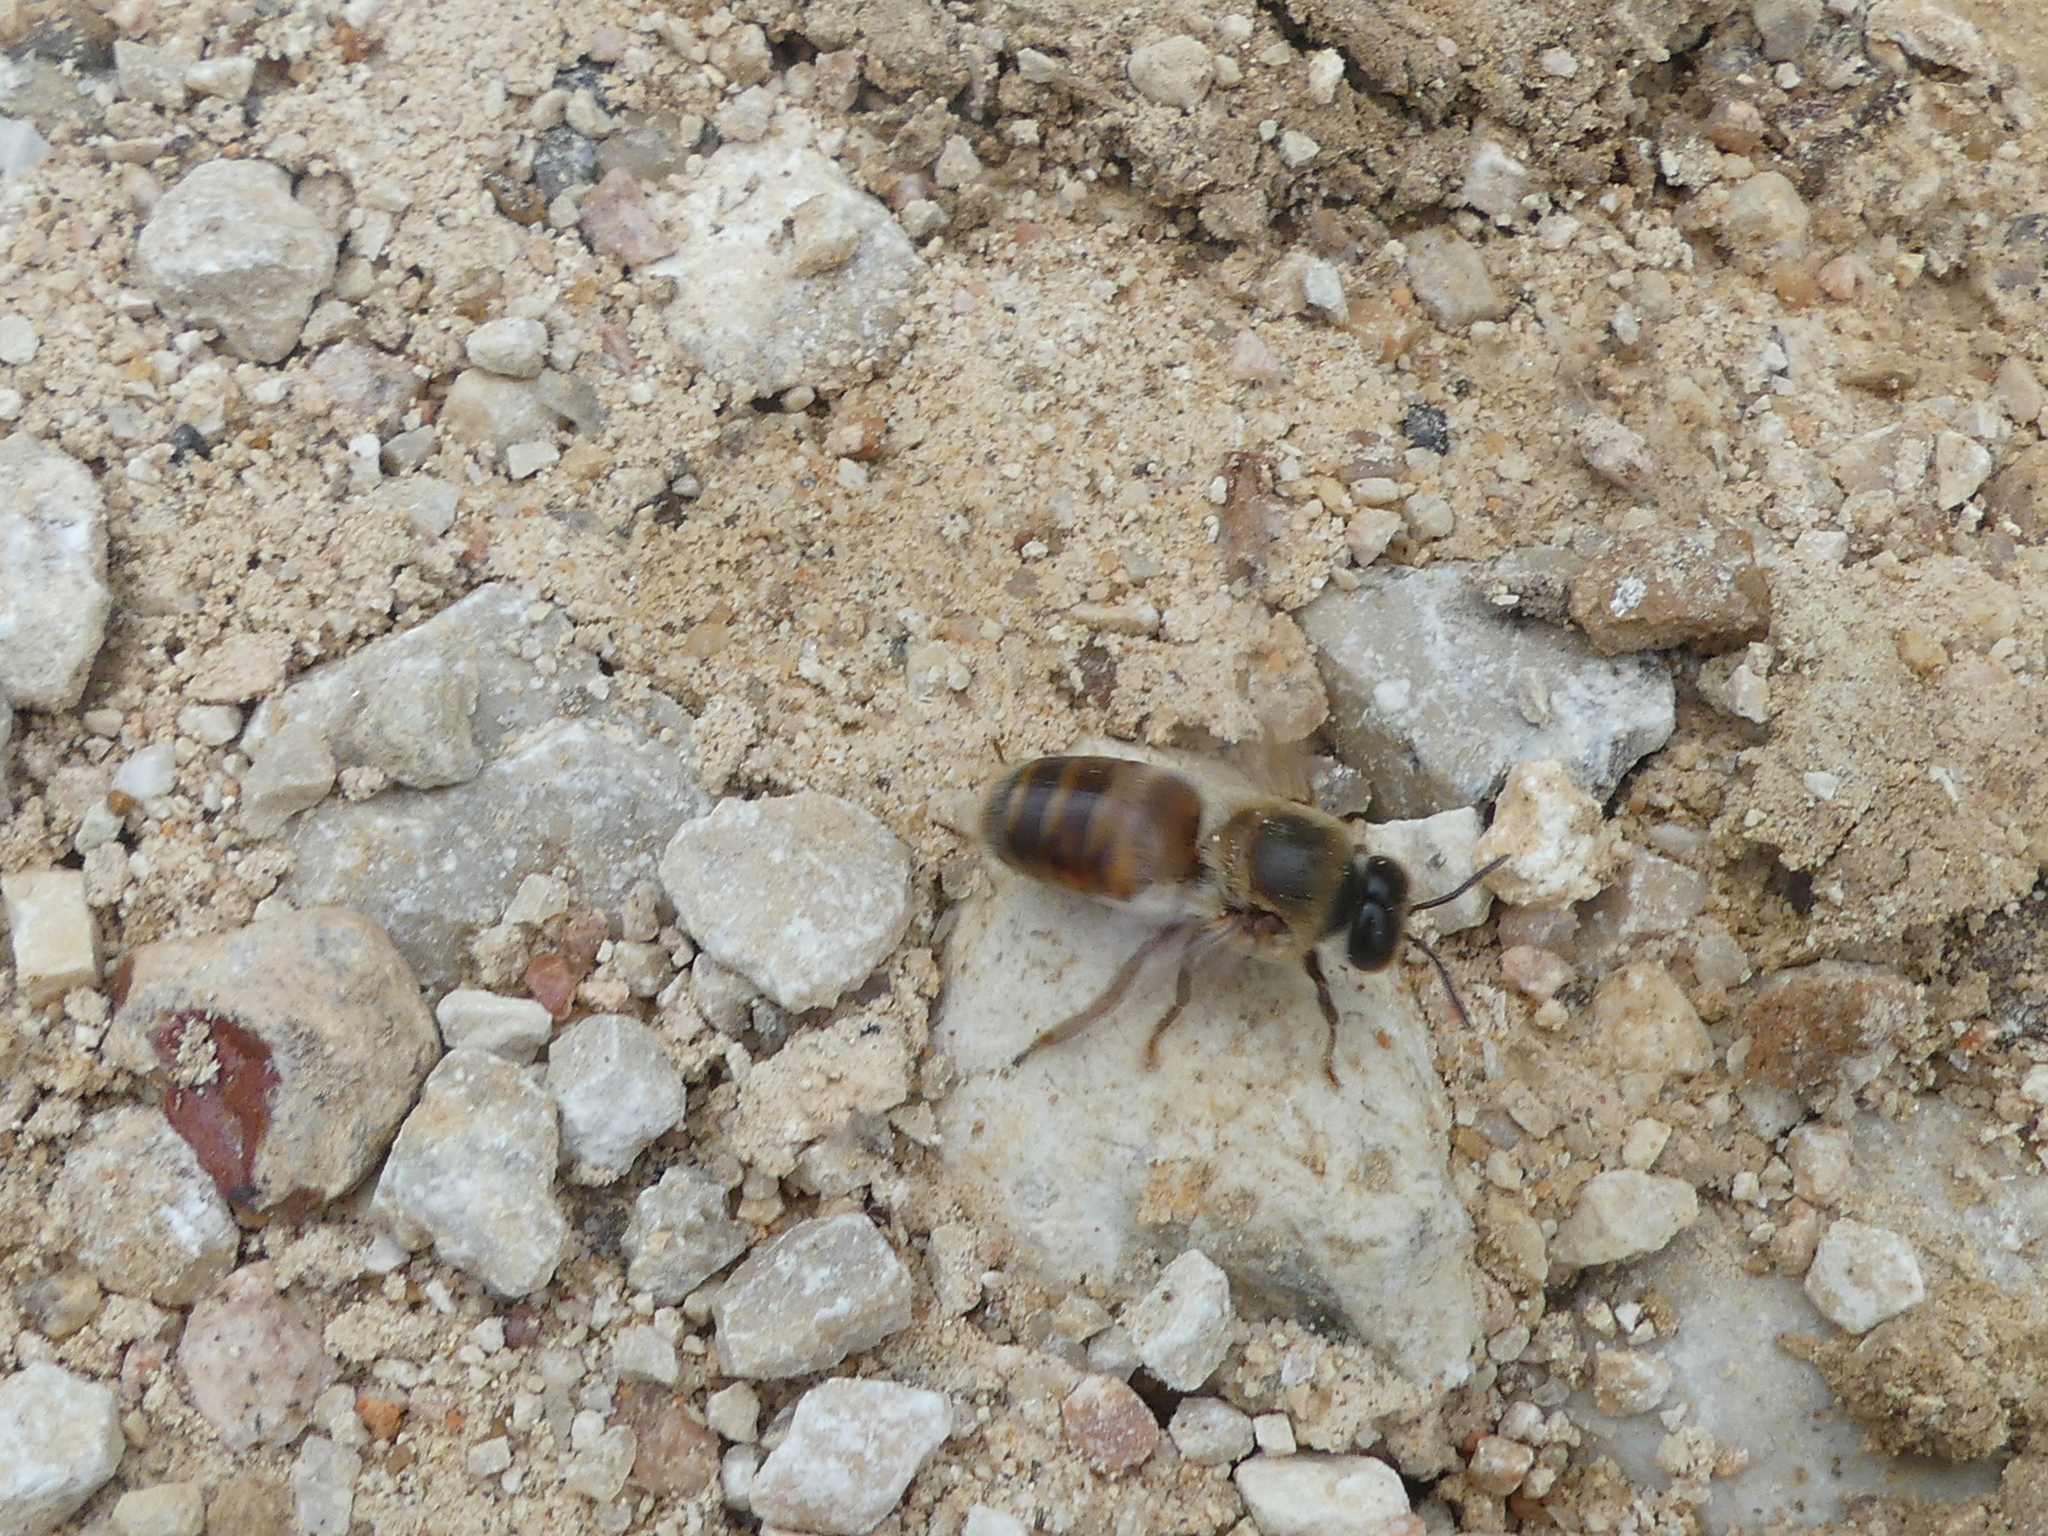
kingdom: Animalia
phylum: Arthropoda
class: Insecta
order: Hymenoptera
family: Apidae
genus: Apis
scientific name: Apis mellifera
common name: Honey bee
